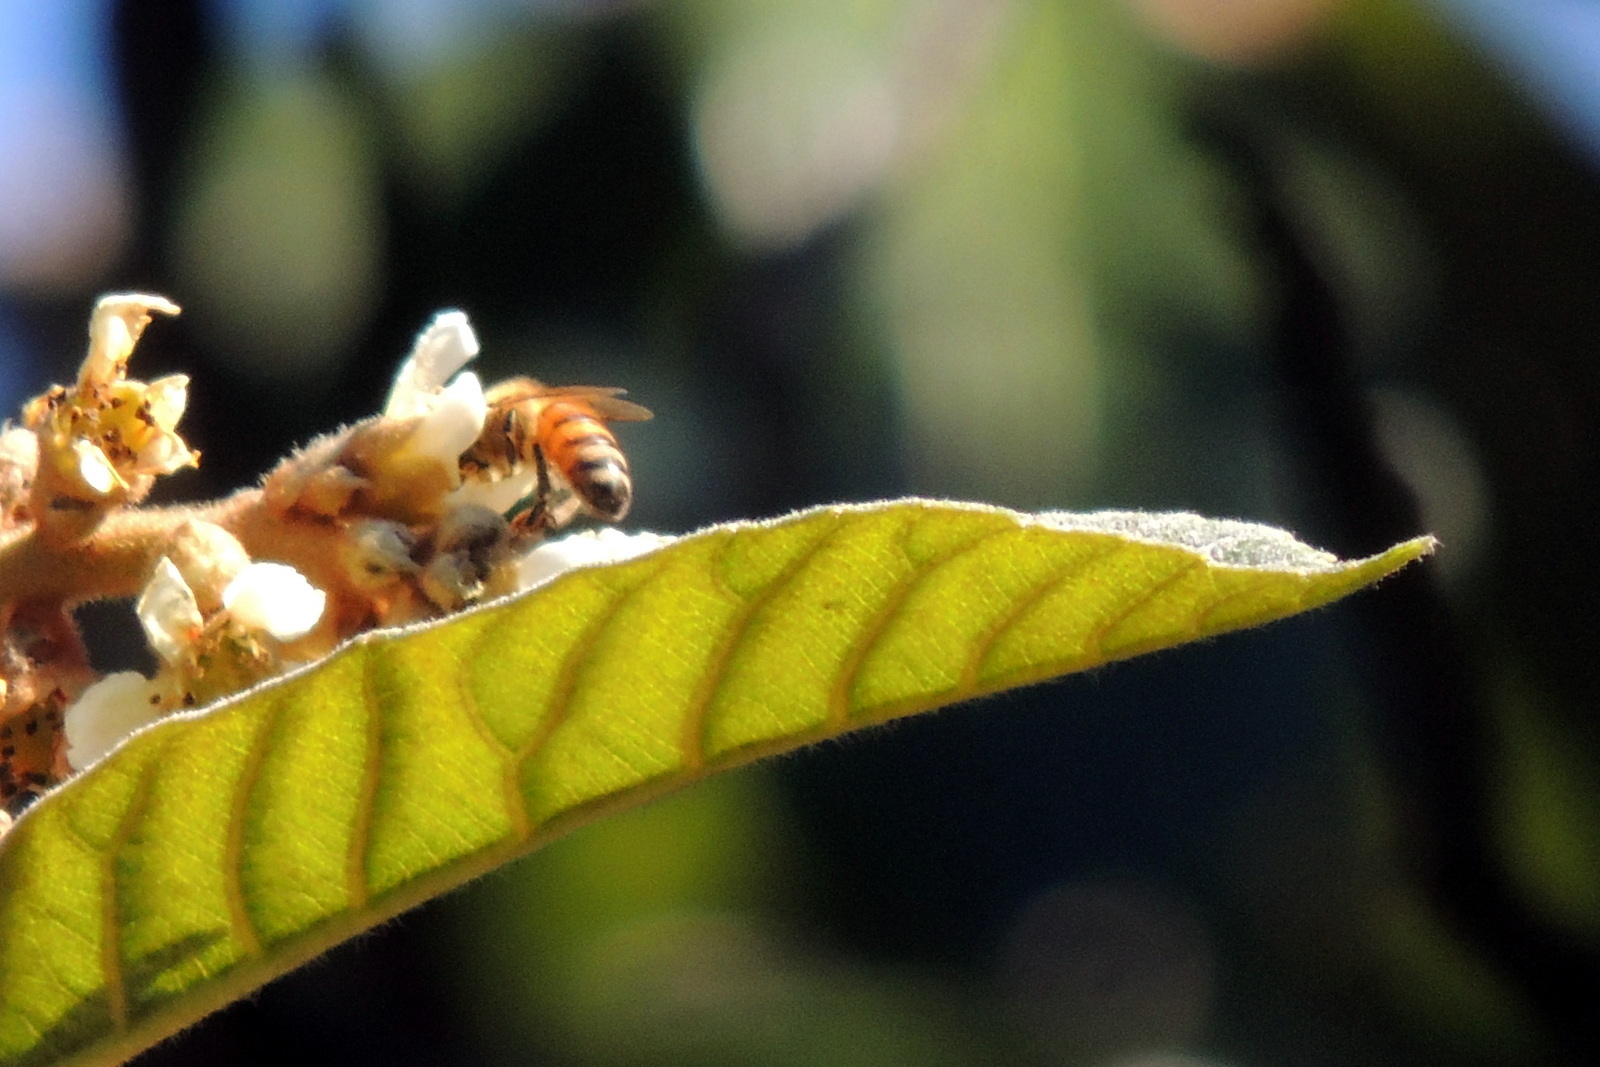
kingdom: Animalia
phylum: Arthropoda
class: Insecta
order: Hymenoptera
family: Apidae
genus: Apis
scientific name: Apis mellifera
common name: Honey bee
